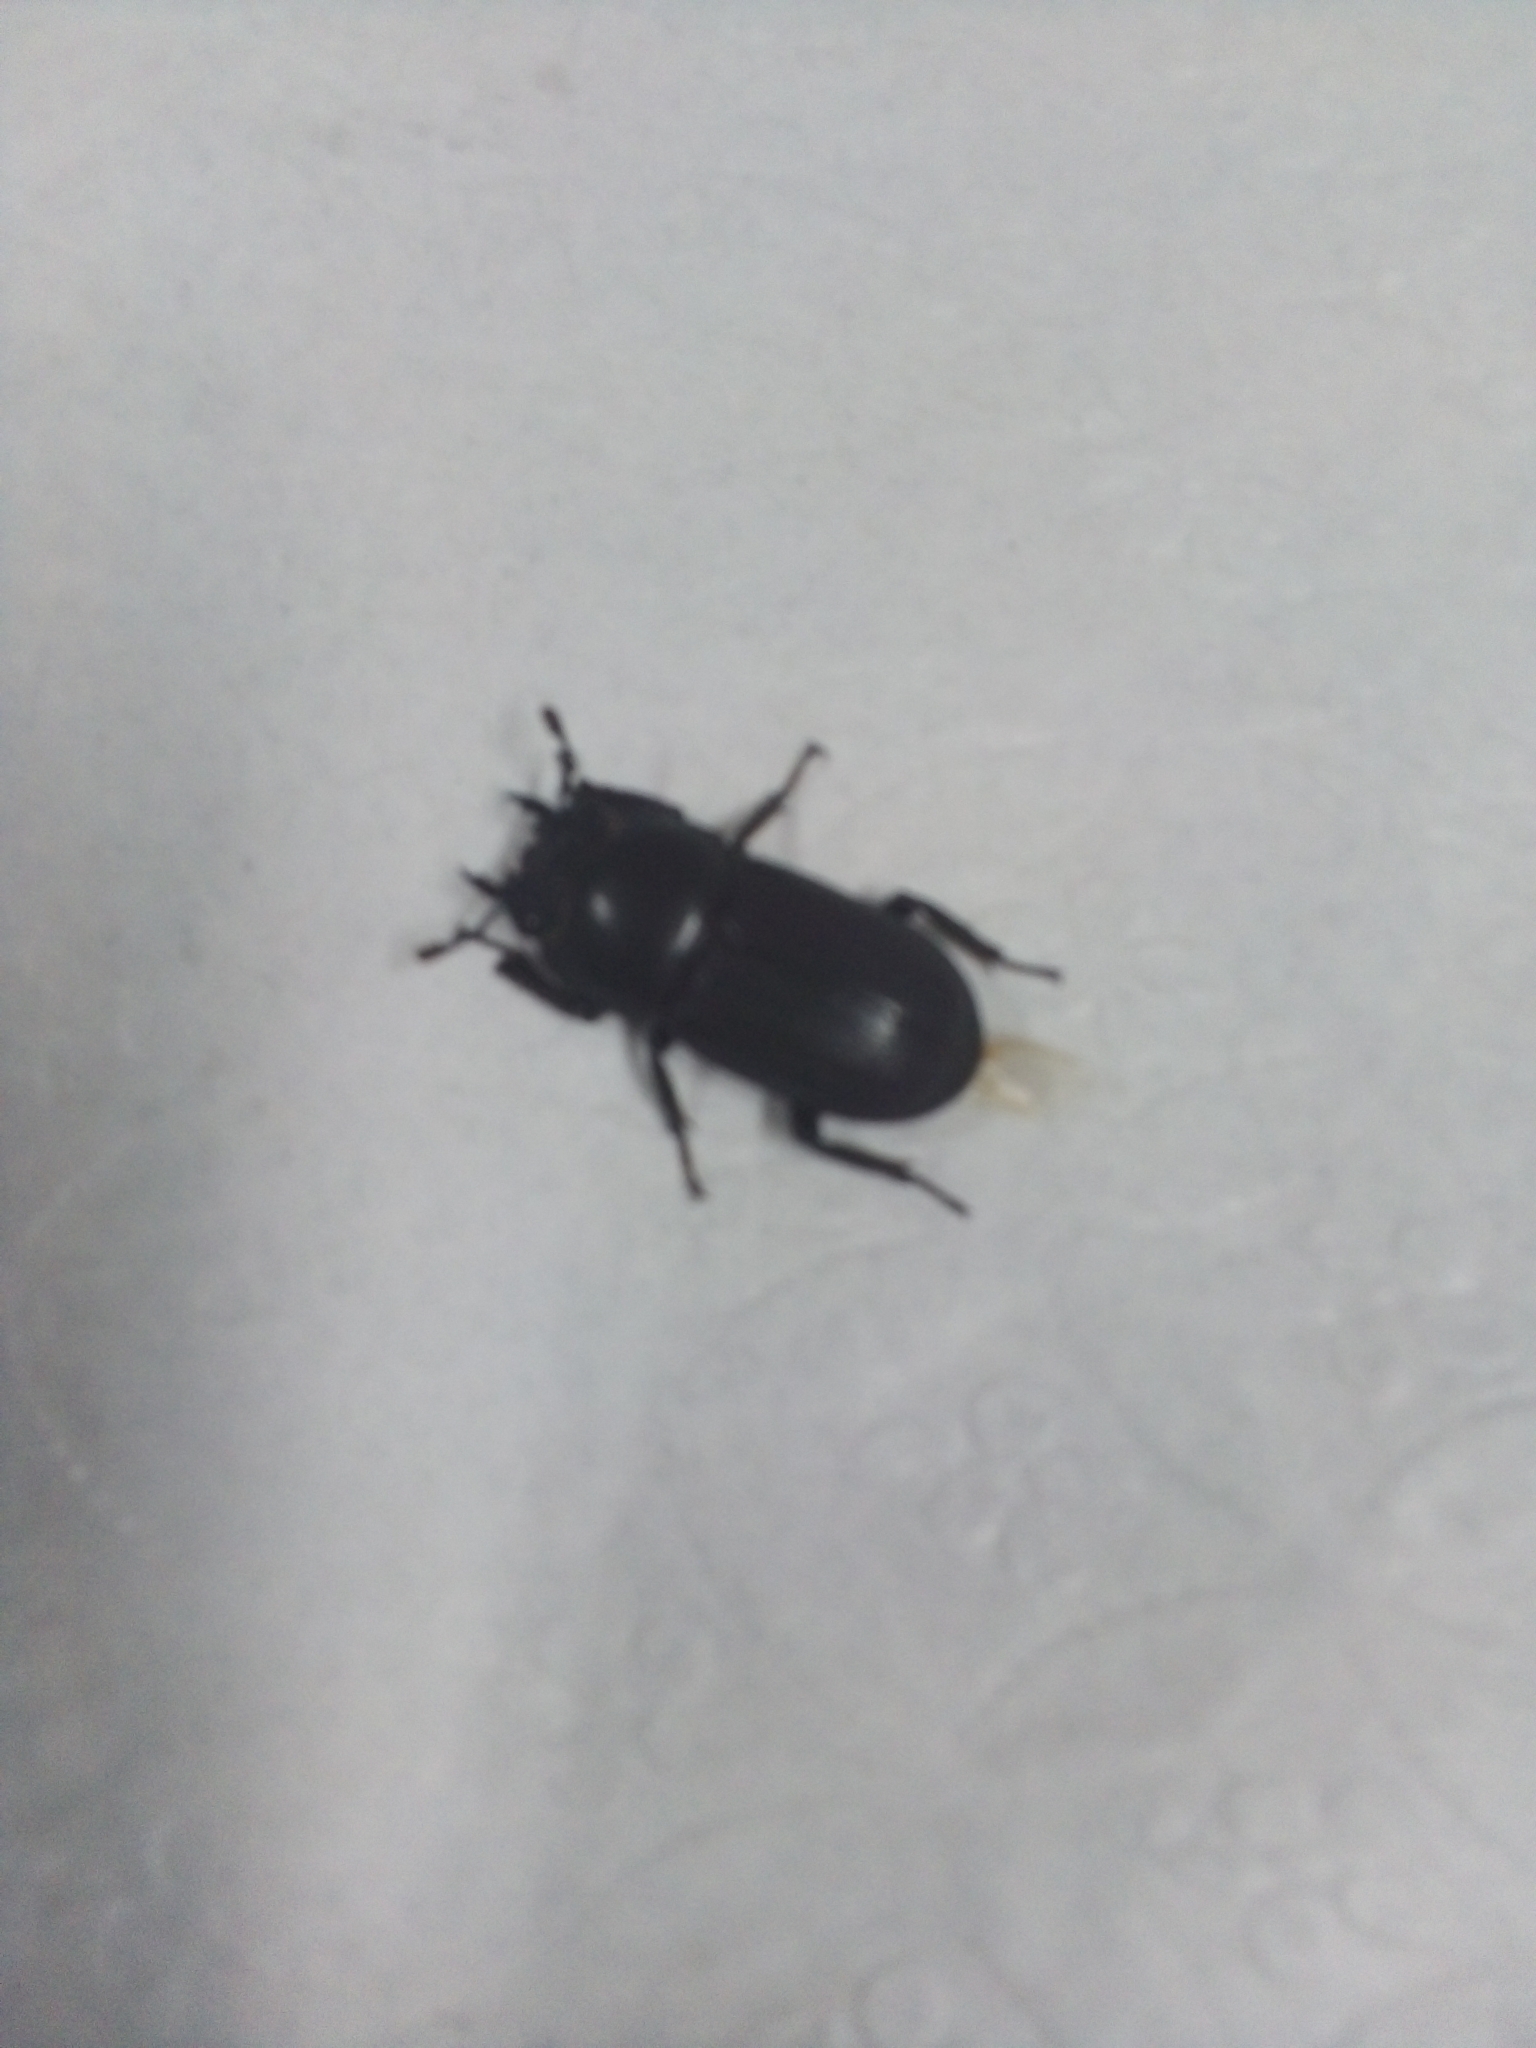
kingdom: Animalia
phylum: Arthropoda
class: Insecta
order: Coleoptera
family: Lucanidae
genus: Dorcus
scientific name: Dorcus parallelipipedus
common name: Lesser stag beetle
